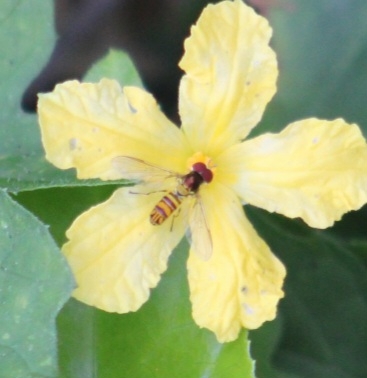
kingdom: Animalia
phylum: Arthropoda
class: Insecta
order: Diptera
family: Syrphidae
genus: Allograpta
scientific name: Allograpta obliqua
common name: Common oblique syrphid
